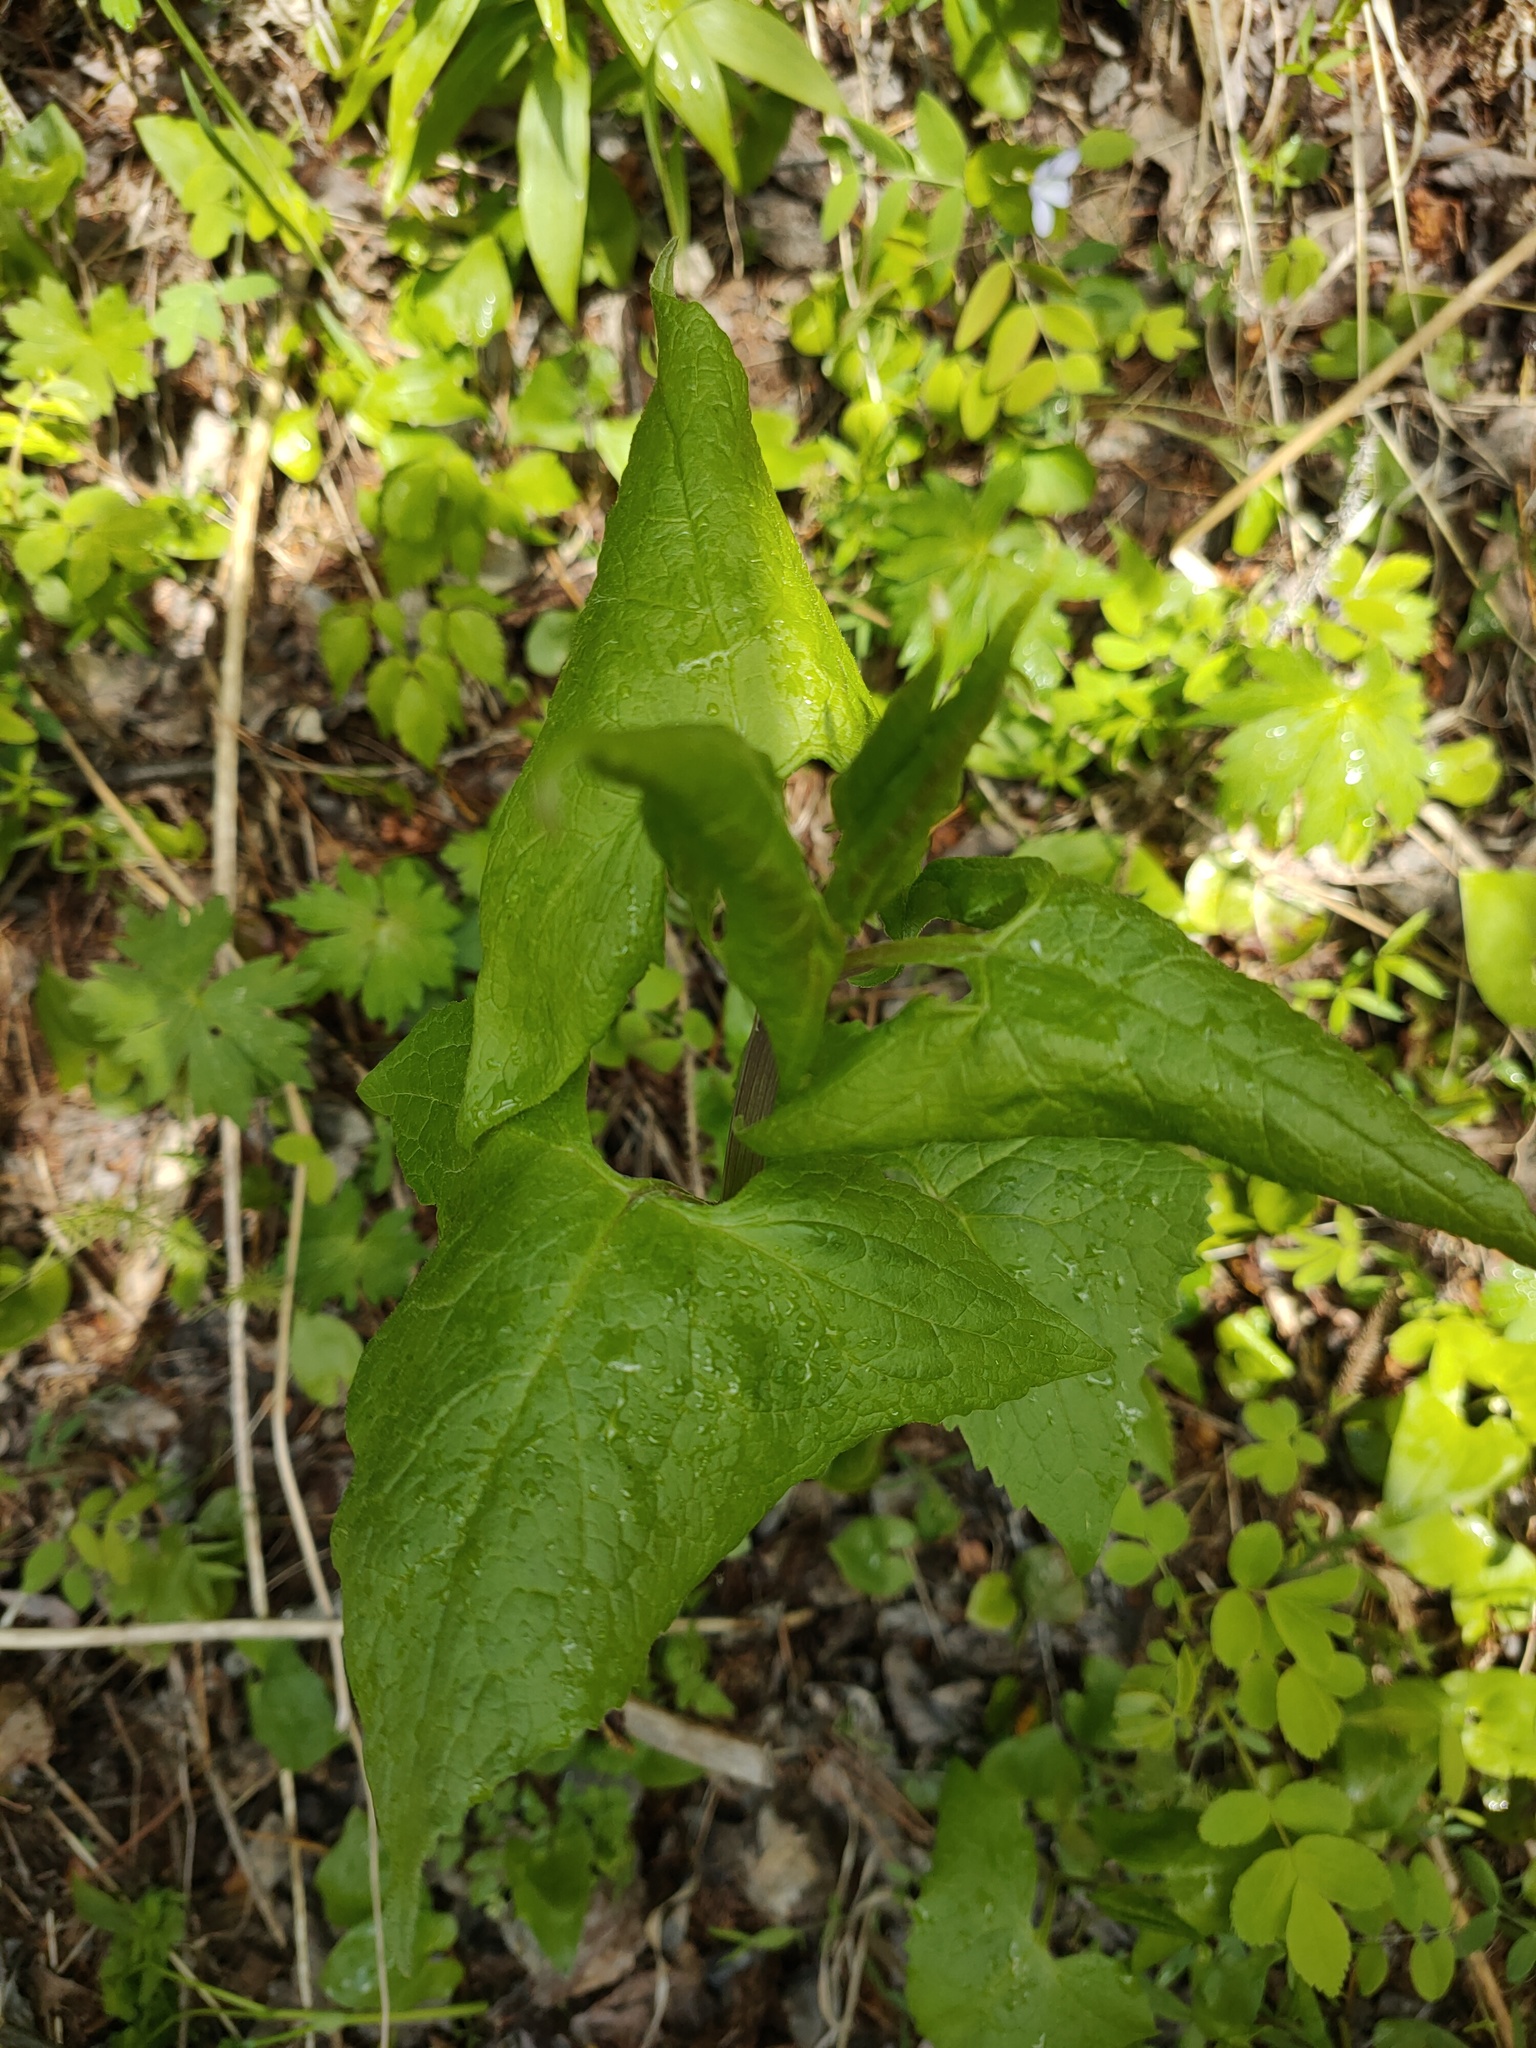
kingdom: Plantae
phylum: Tracheophyta
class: Magnoliopsida
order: Asterales
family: Asteraceae
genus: Parasenecio
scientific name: Parasenecio hastatus
